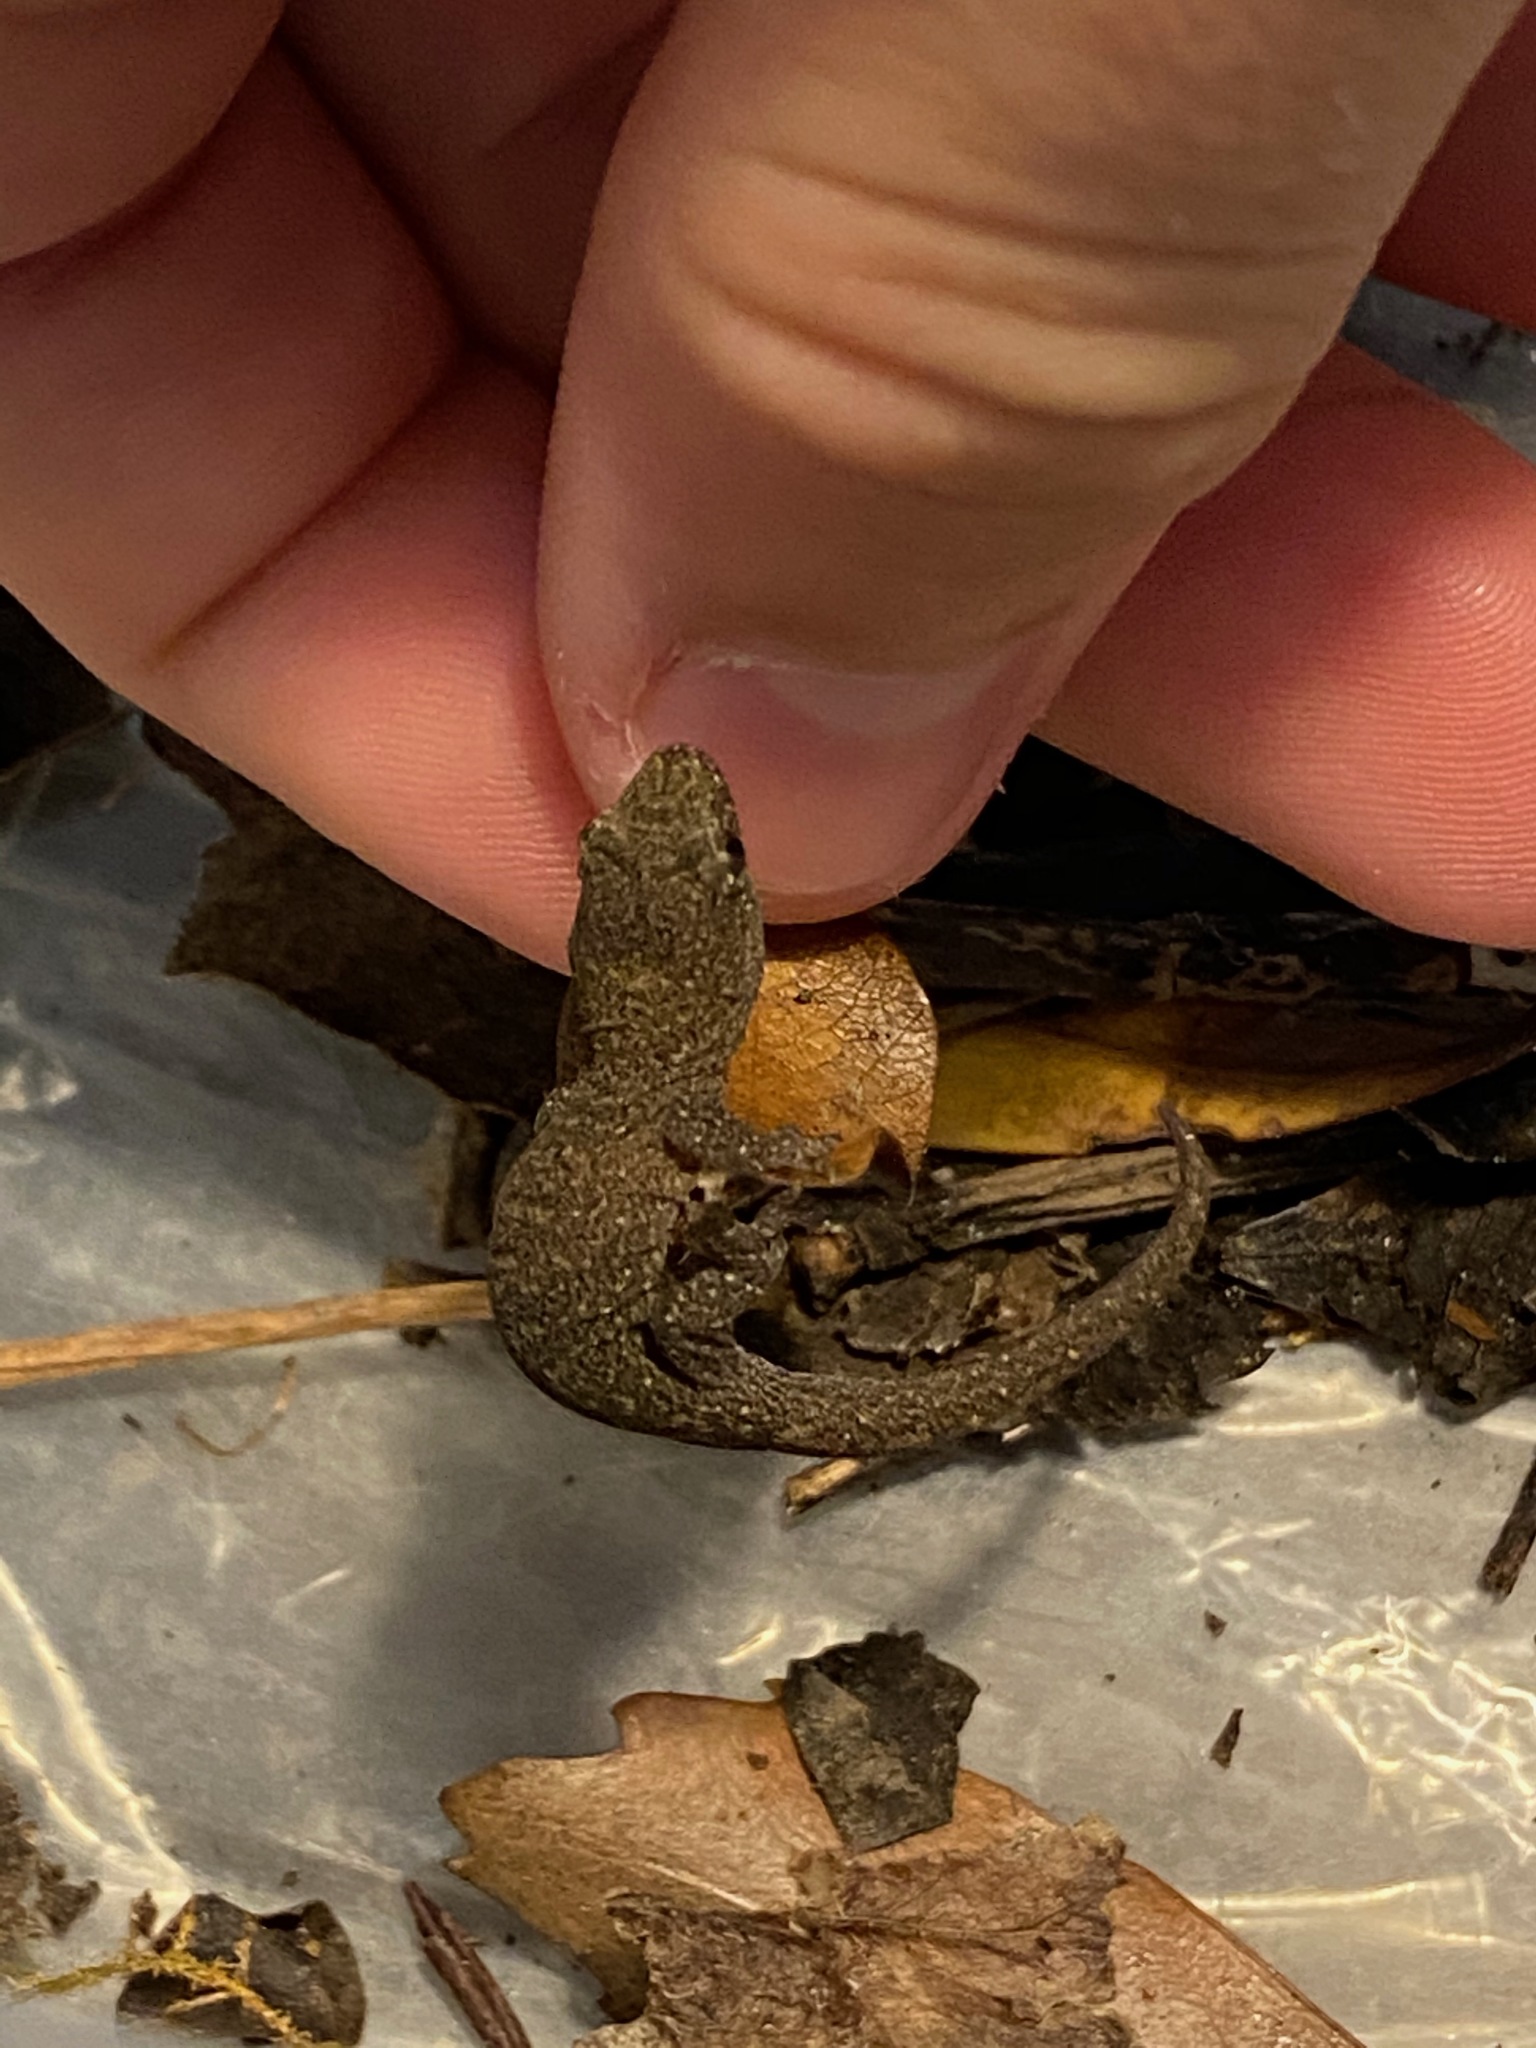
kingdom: Animalia
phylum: Chordata
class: Squamata
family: Diplodactylidae
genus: Woodworthia
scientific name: Woodworthia
